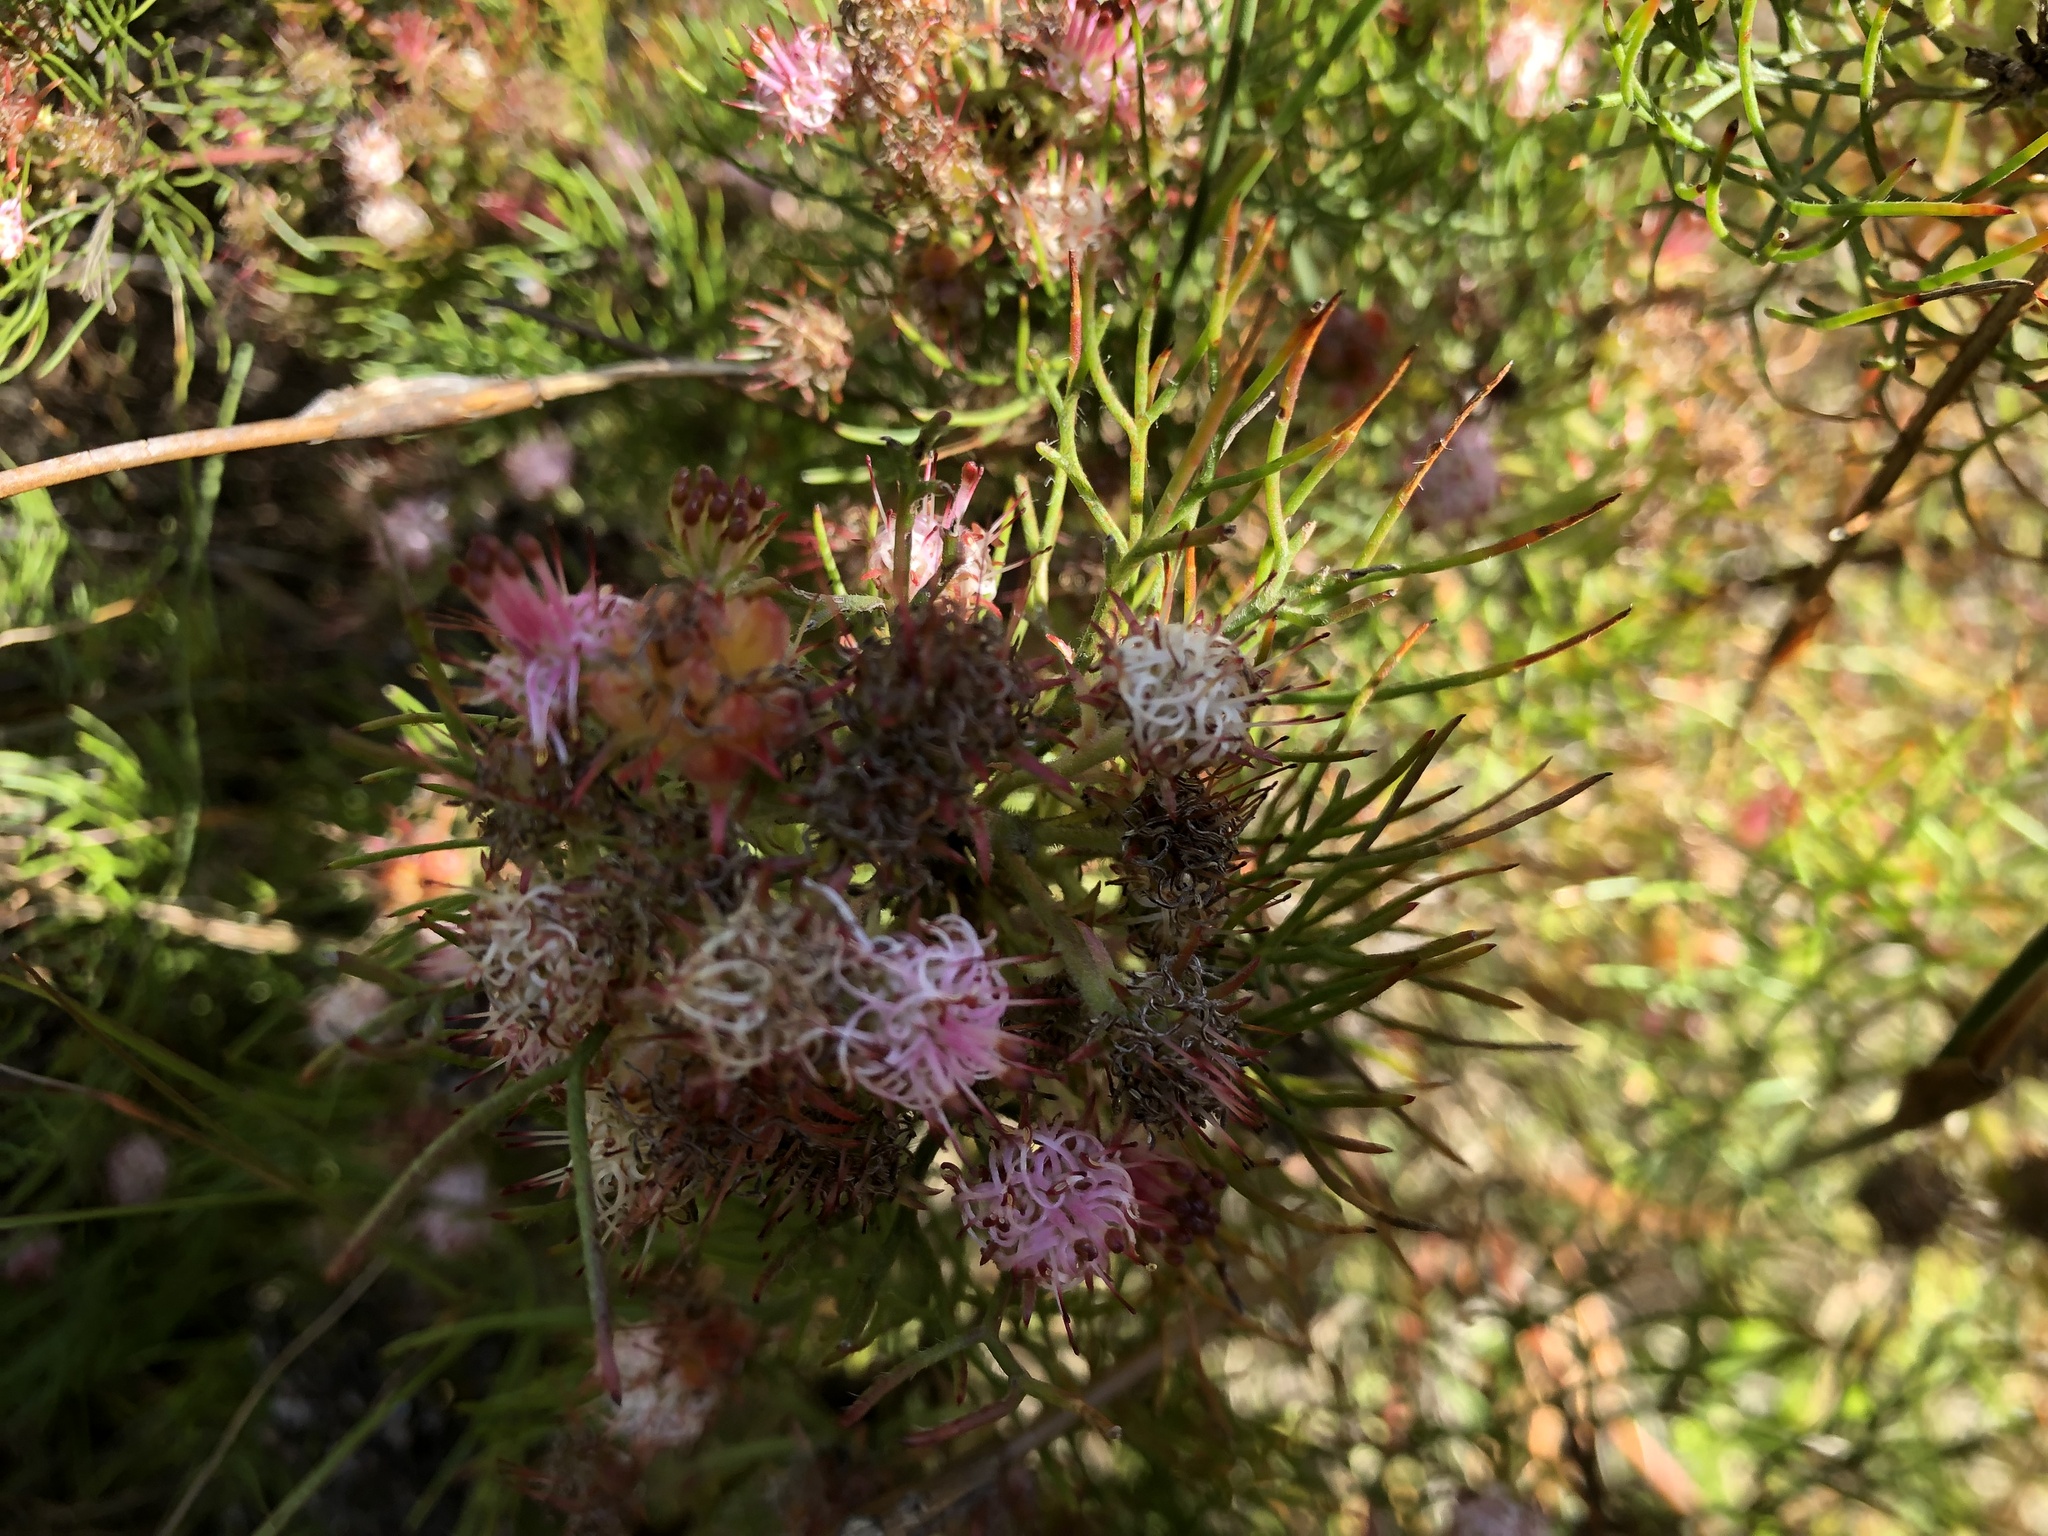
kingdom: Plantae
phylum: Tracheophyta
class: Magnoliopsida
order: Proteales
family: Proteaceae
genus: Serruria
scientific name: Serruria fasciflora
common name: Common pin spiderhead
